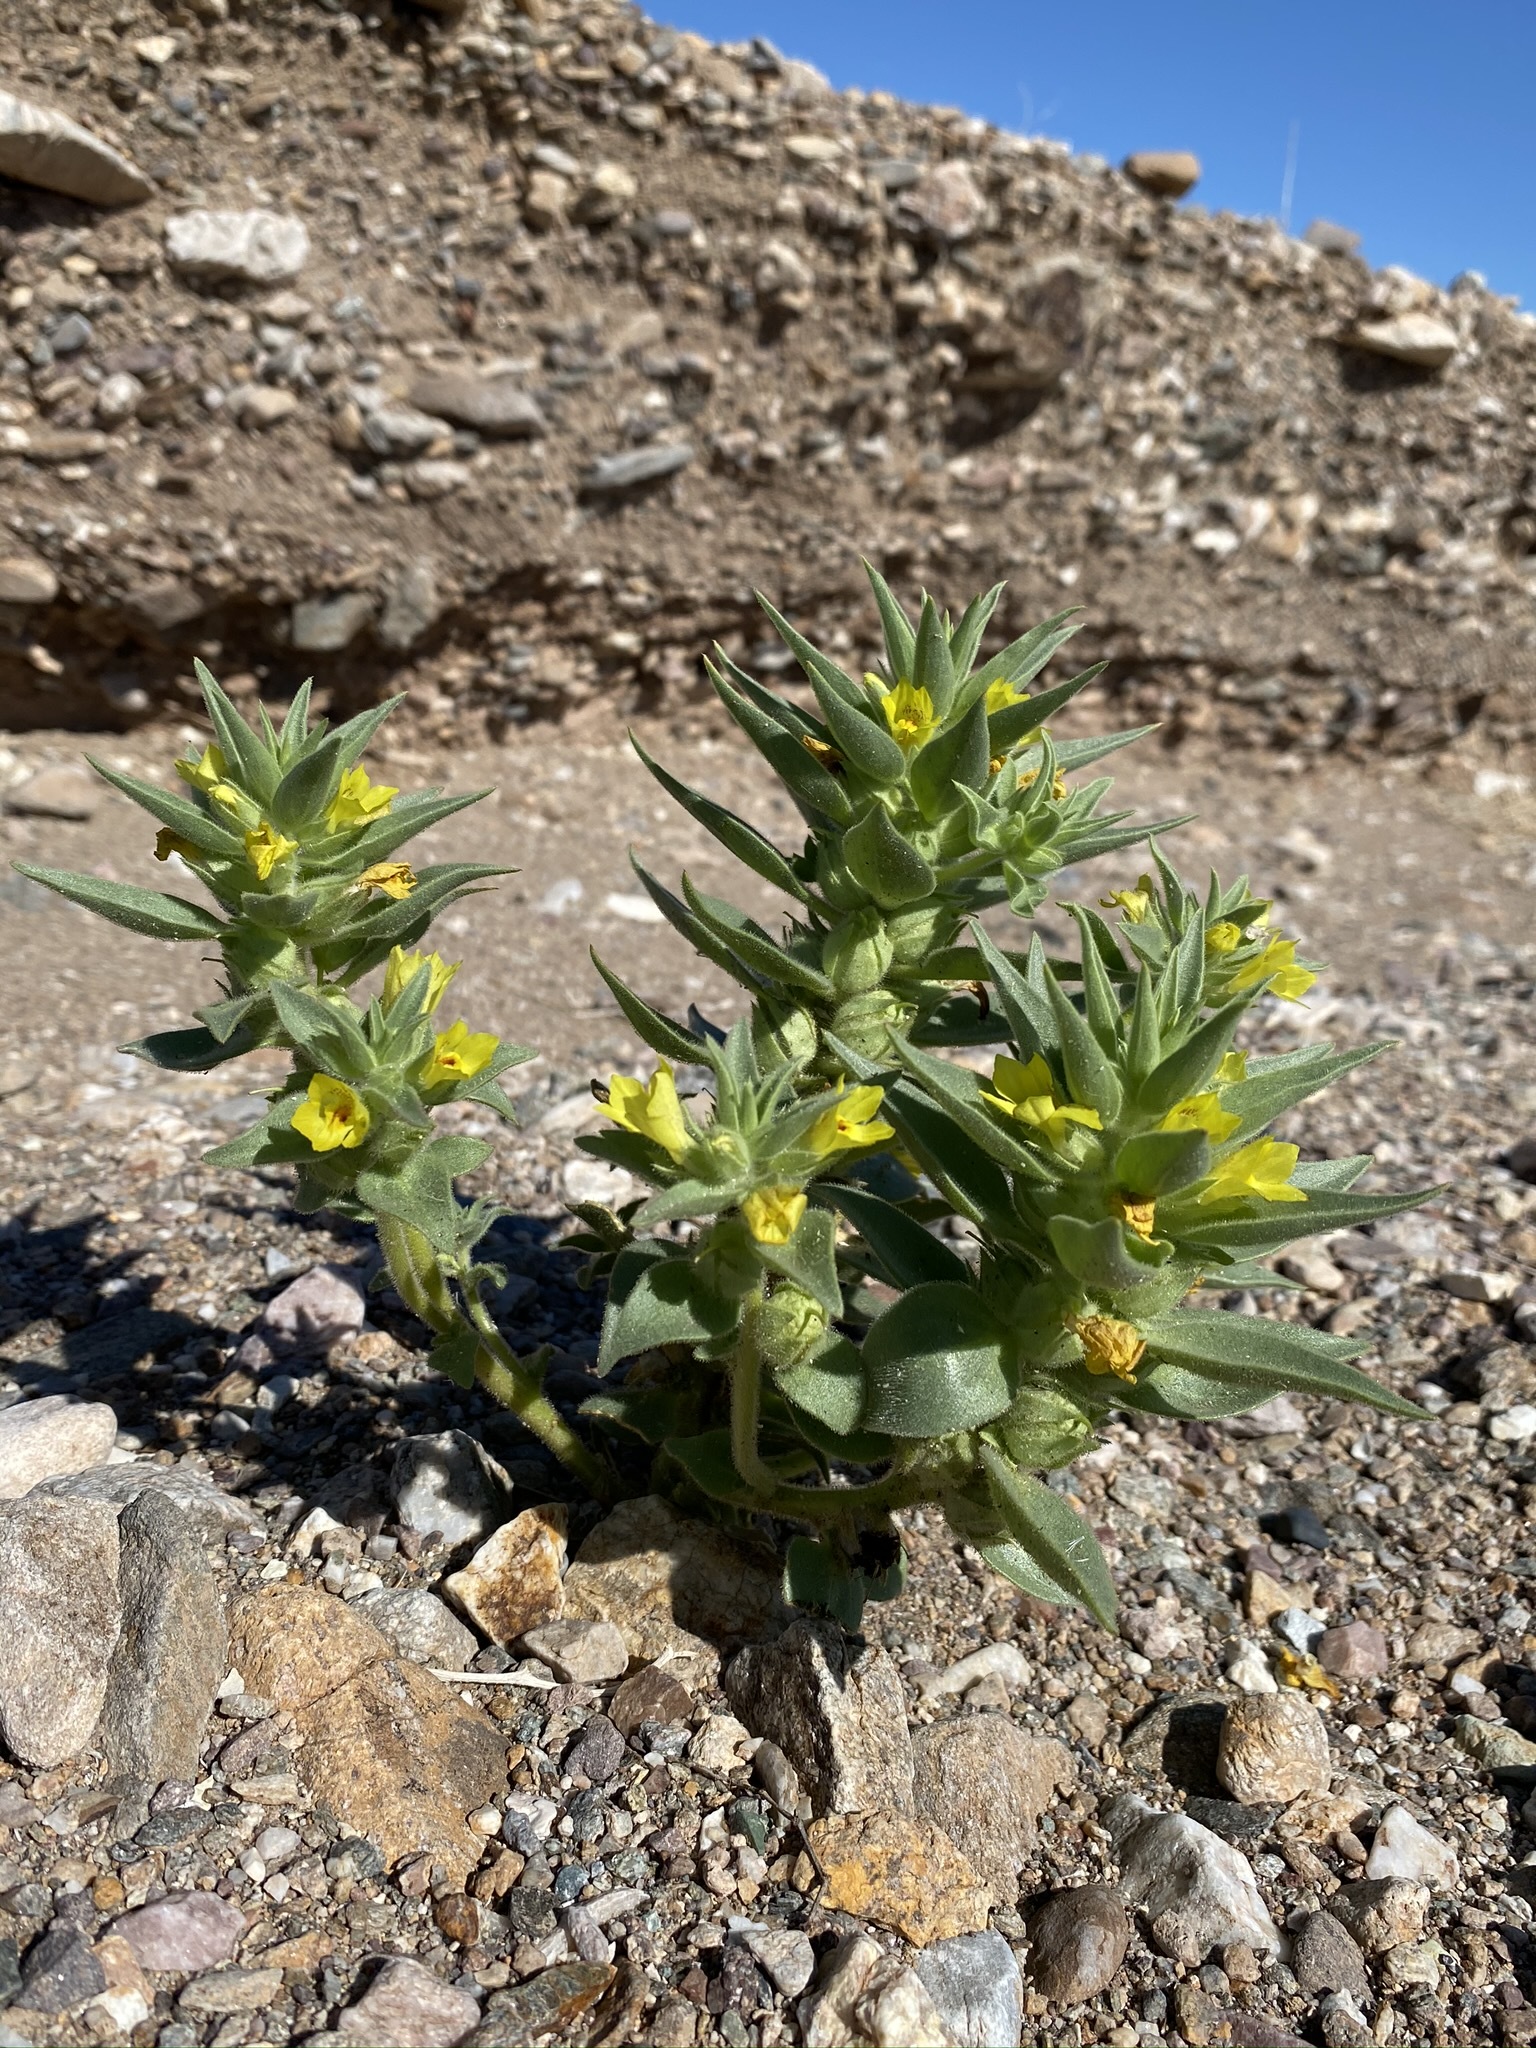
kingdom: Plantae
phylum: Tracheophyta
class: Magnoliopsida
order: Lamiales
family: Plantaginaceae
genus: Mohavea
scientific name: Mohavea breviflora
